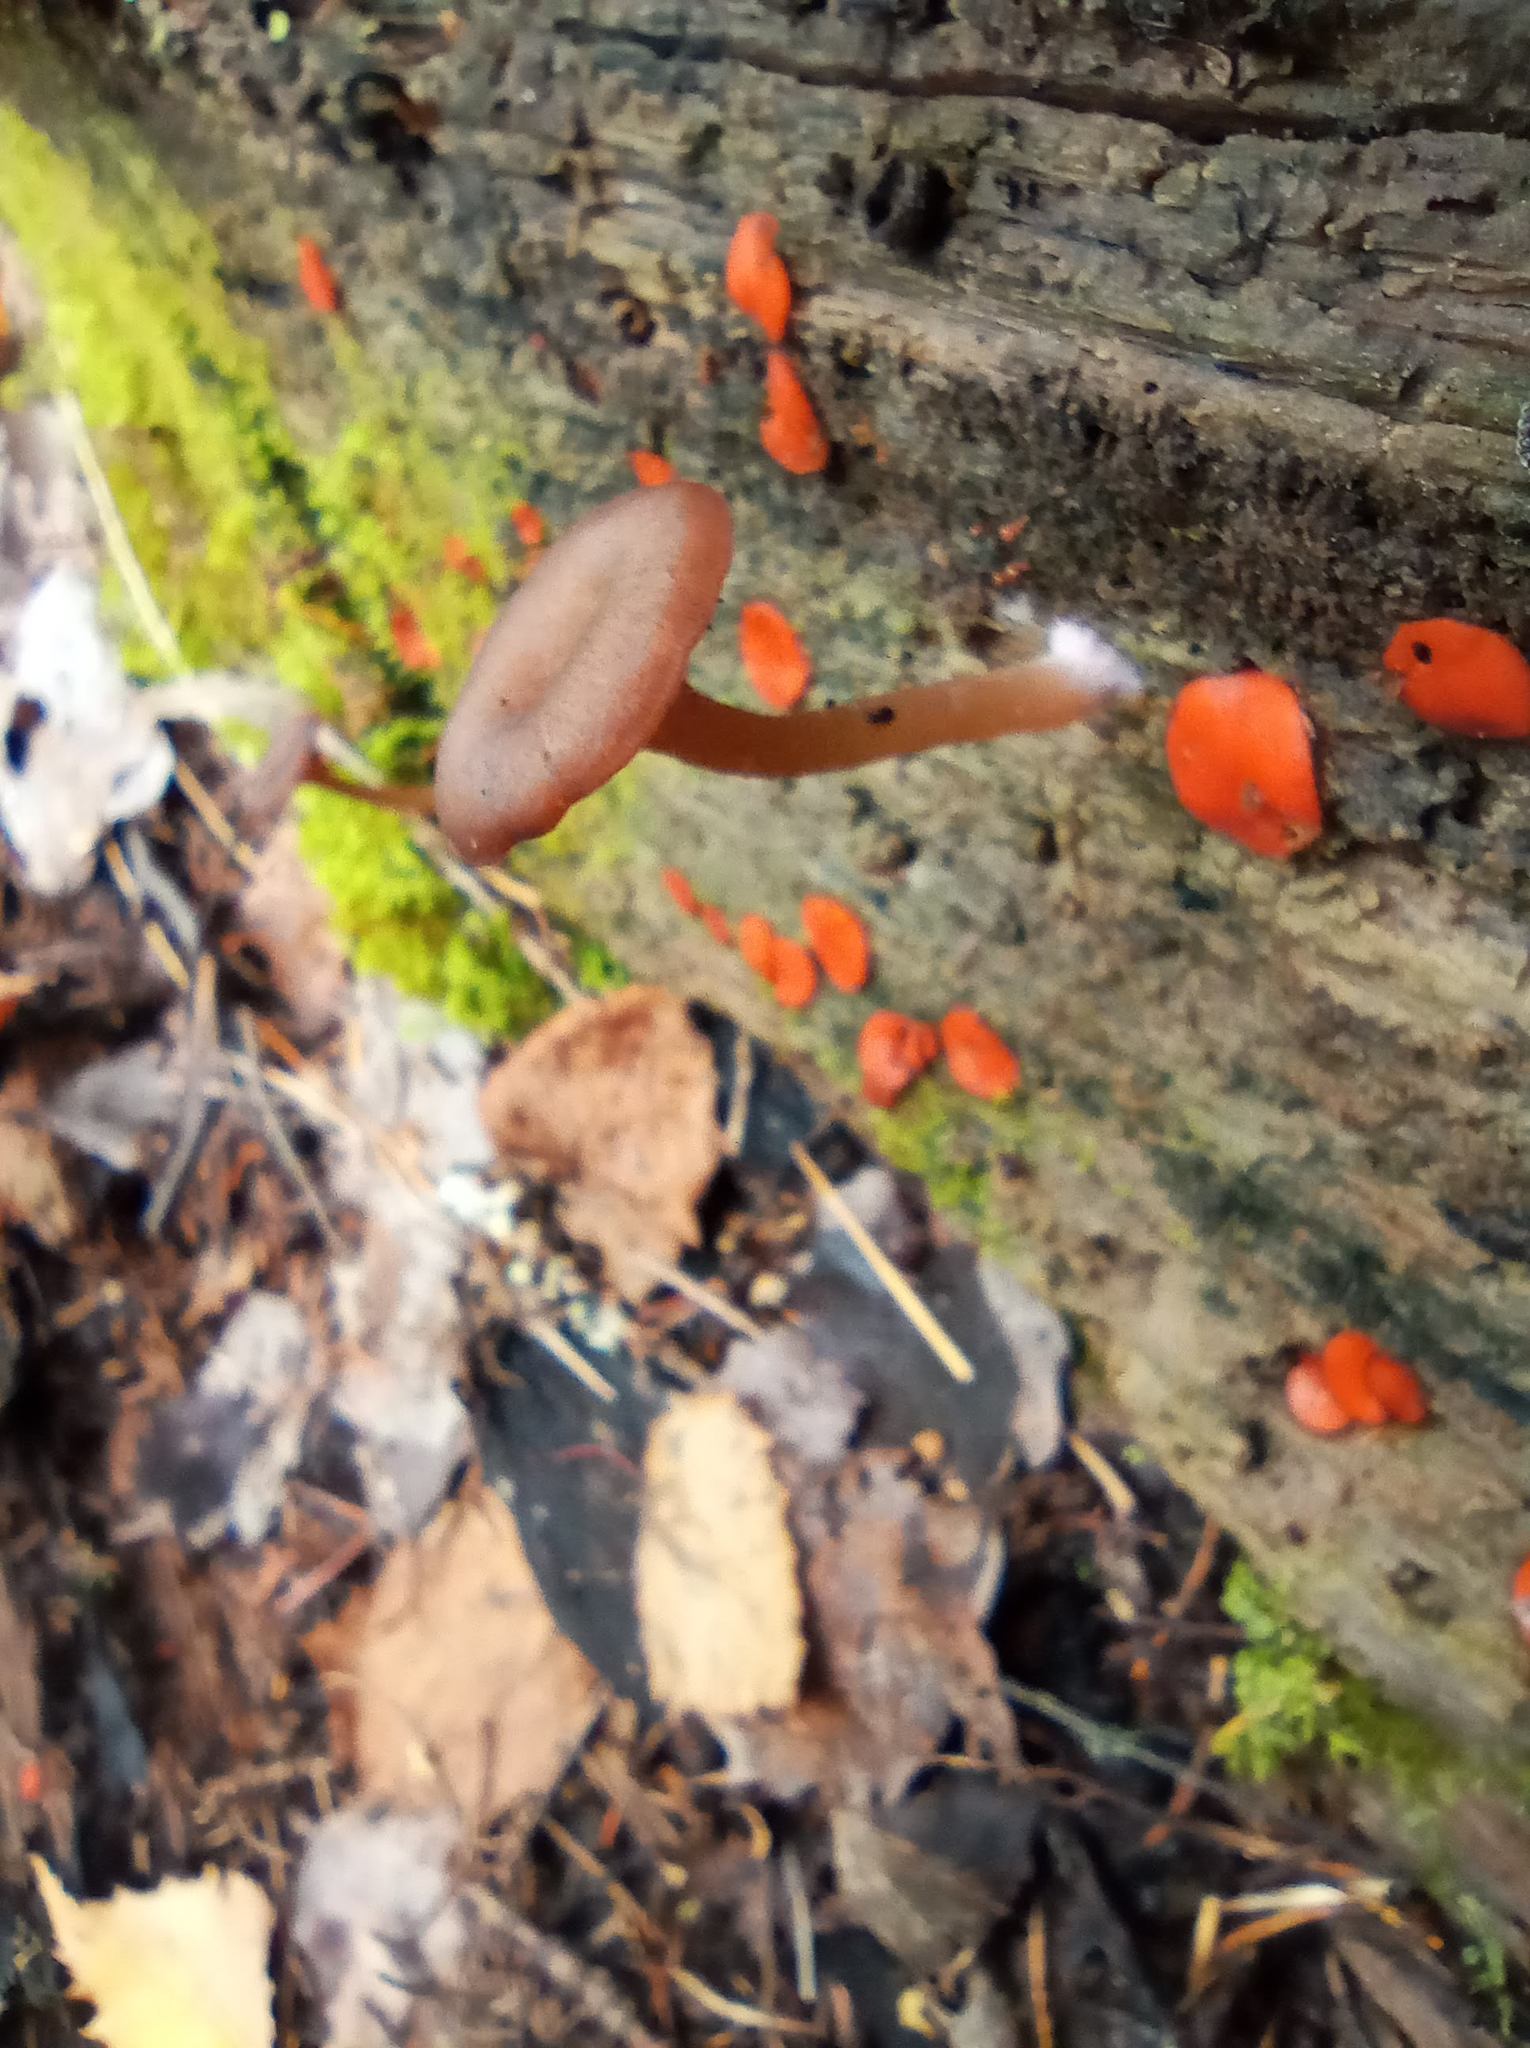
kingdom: Fungi
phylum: Basidiomycota
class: Agaricomycetes
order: Agaricales
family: Hygrophoraceae
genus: Arrhenia
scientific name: Arrhenia discorosea
